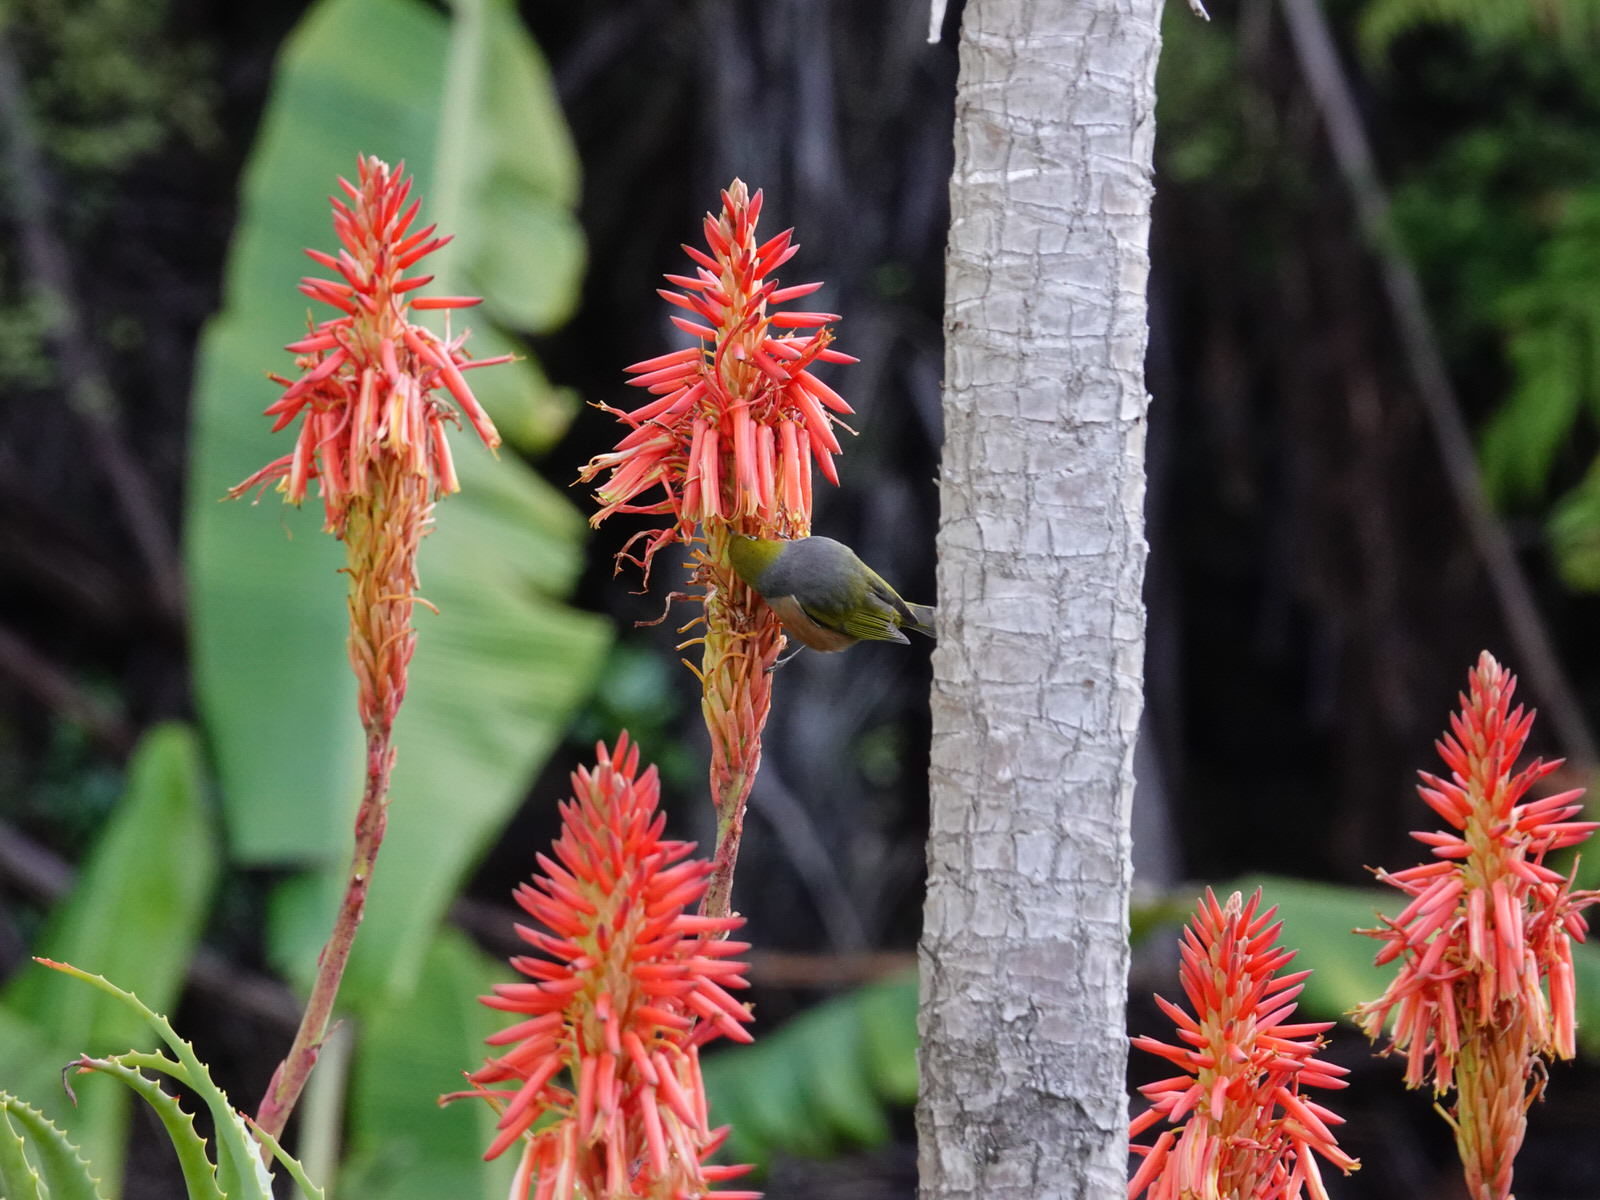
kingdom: Animalia
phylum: Chordata
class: Aves
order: Passeriformes
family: Zosteropidae
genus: Zosterops
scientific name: Zosterops lateralis
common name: Silvereye
